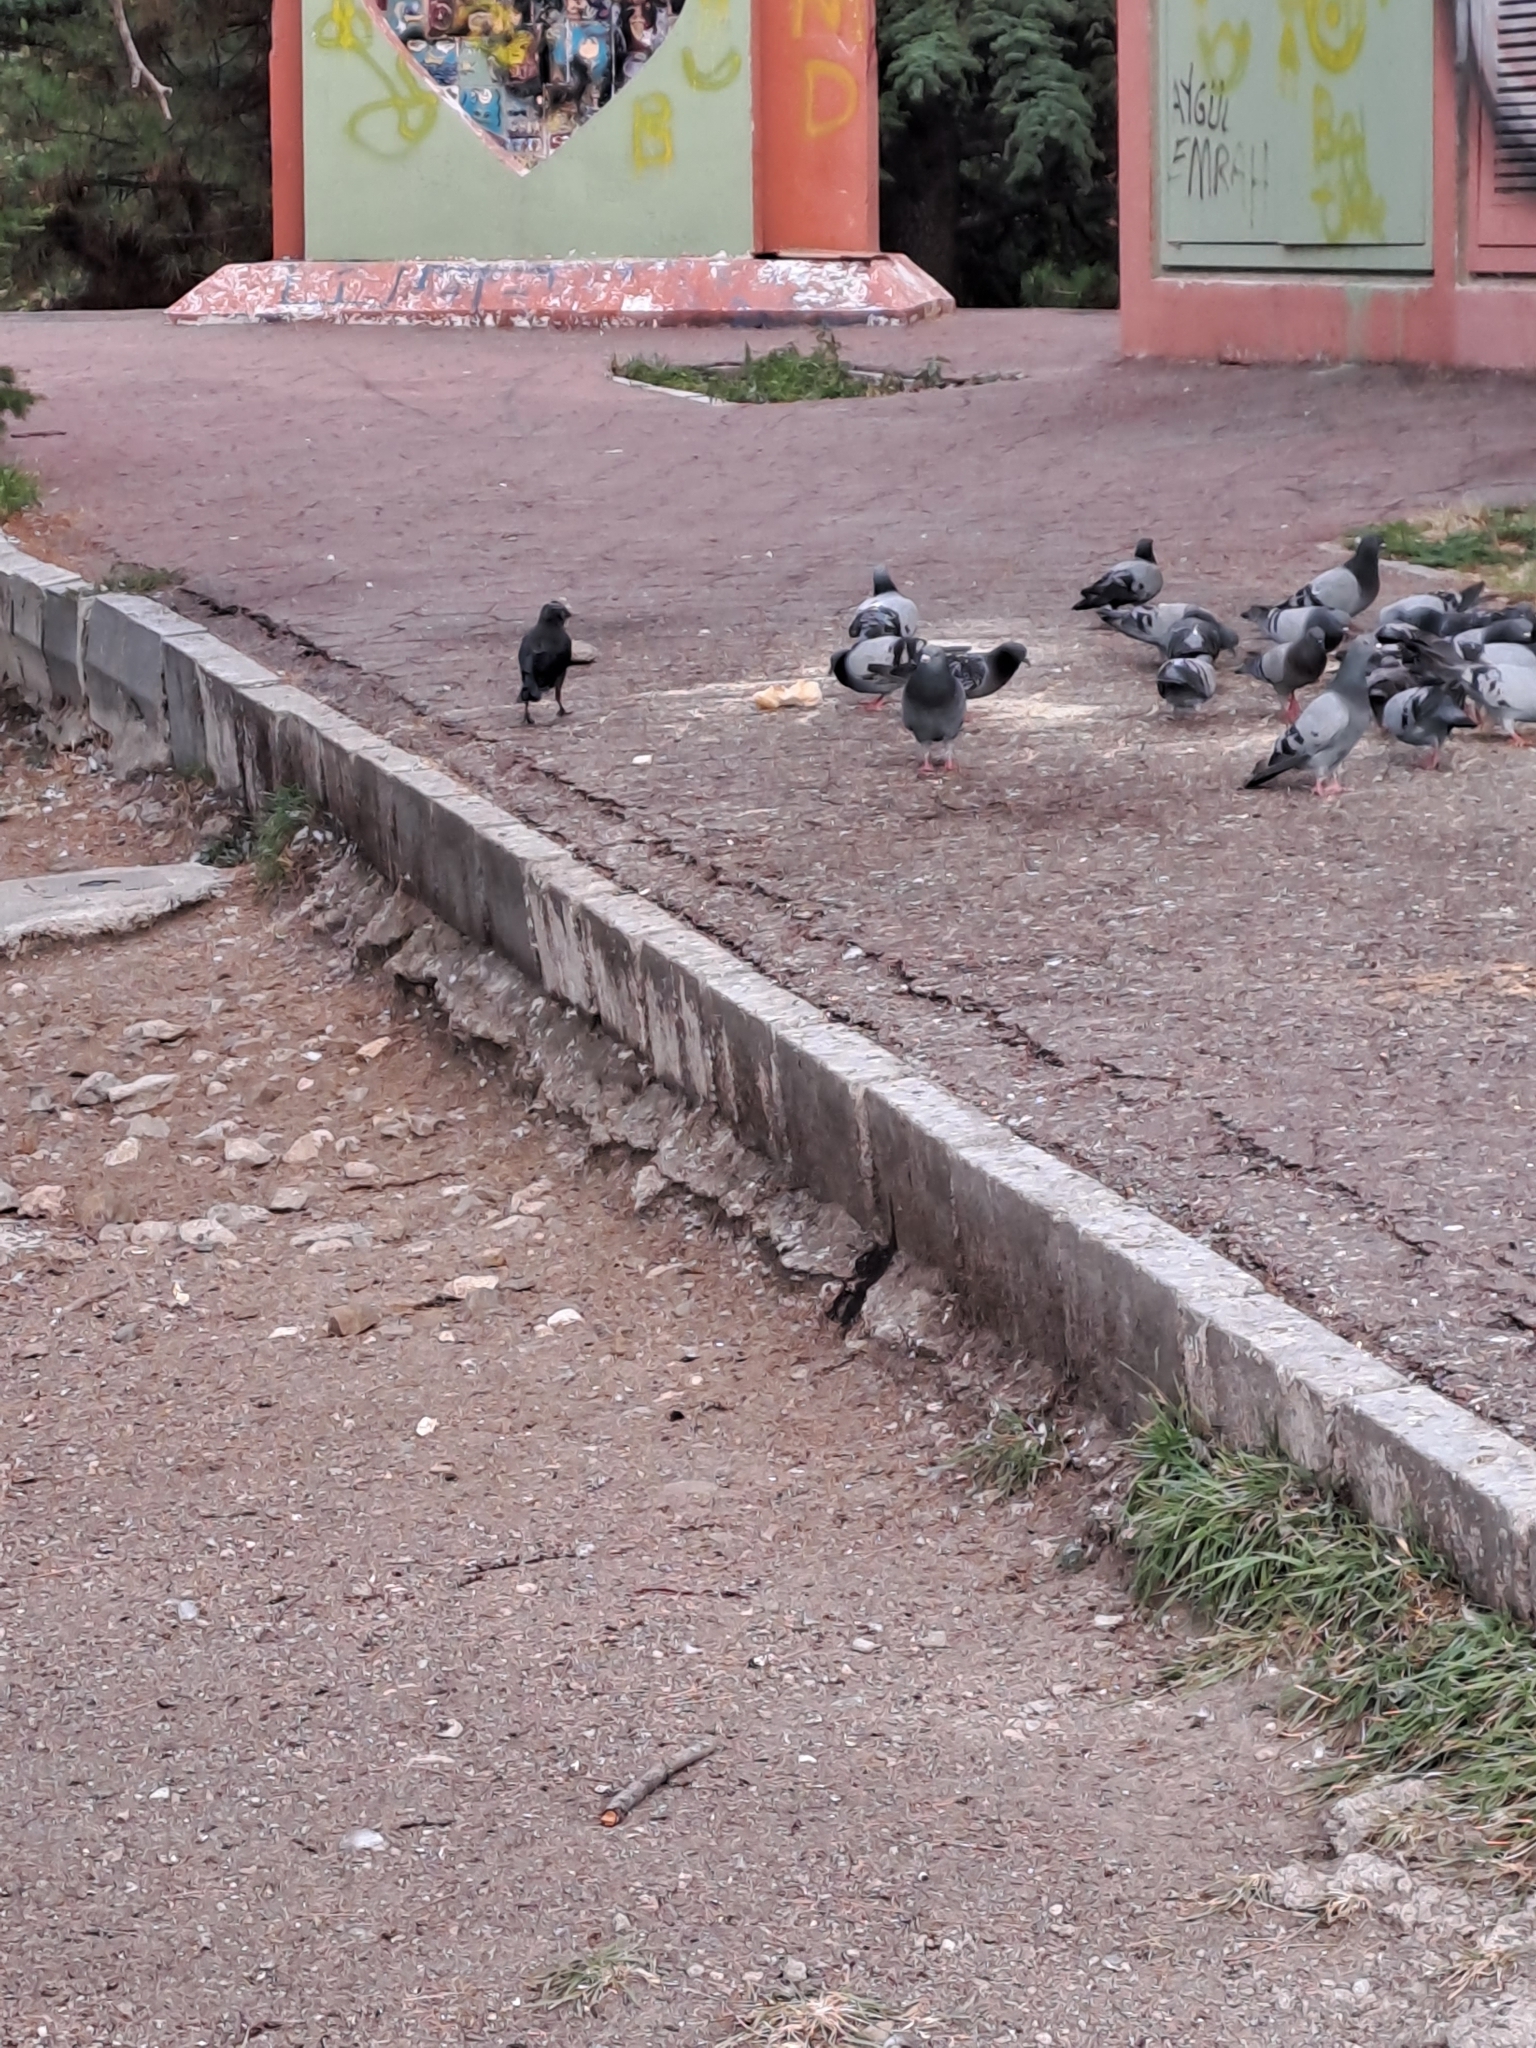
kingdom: Animalia
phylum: Chordata
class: Aves
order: Passeriformes
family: Corvidae
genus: Coloeus
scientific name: Coloeus monedula
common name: Western jackdaw
